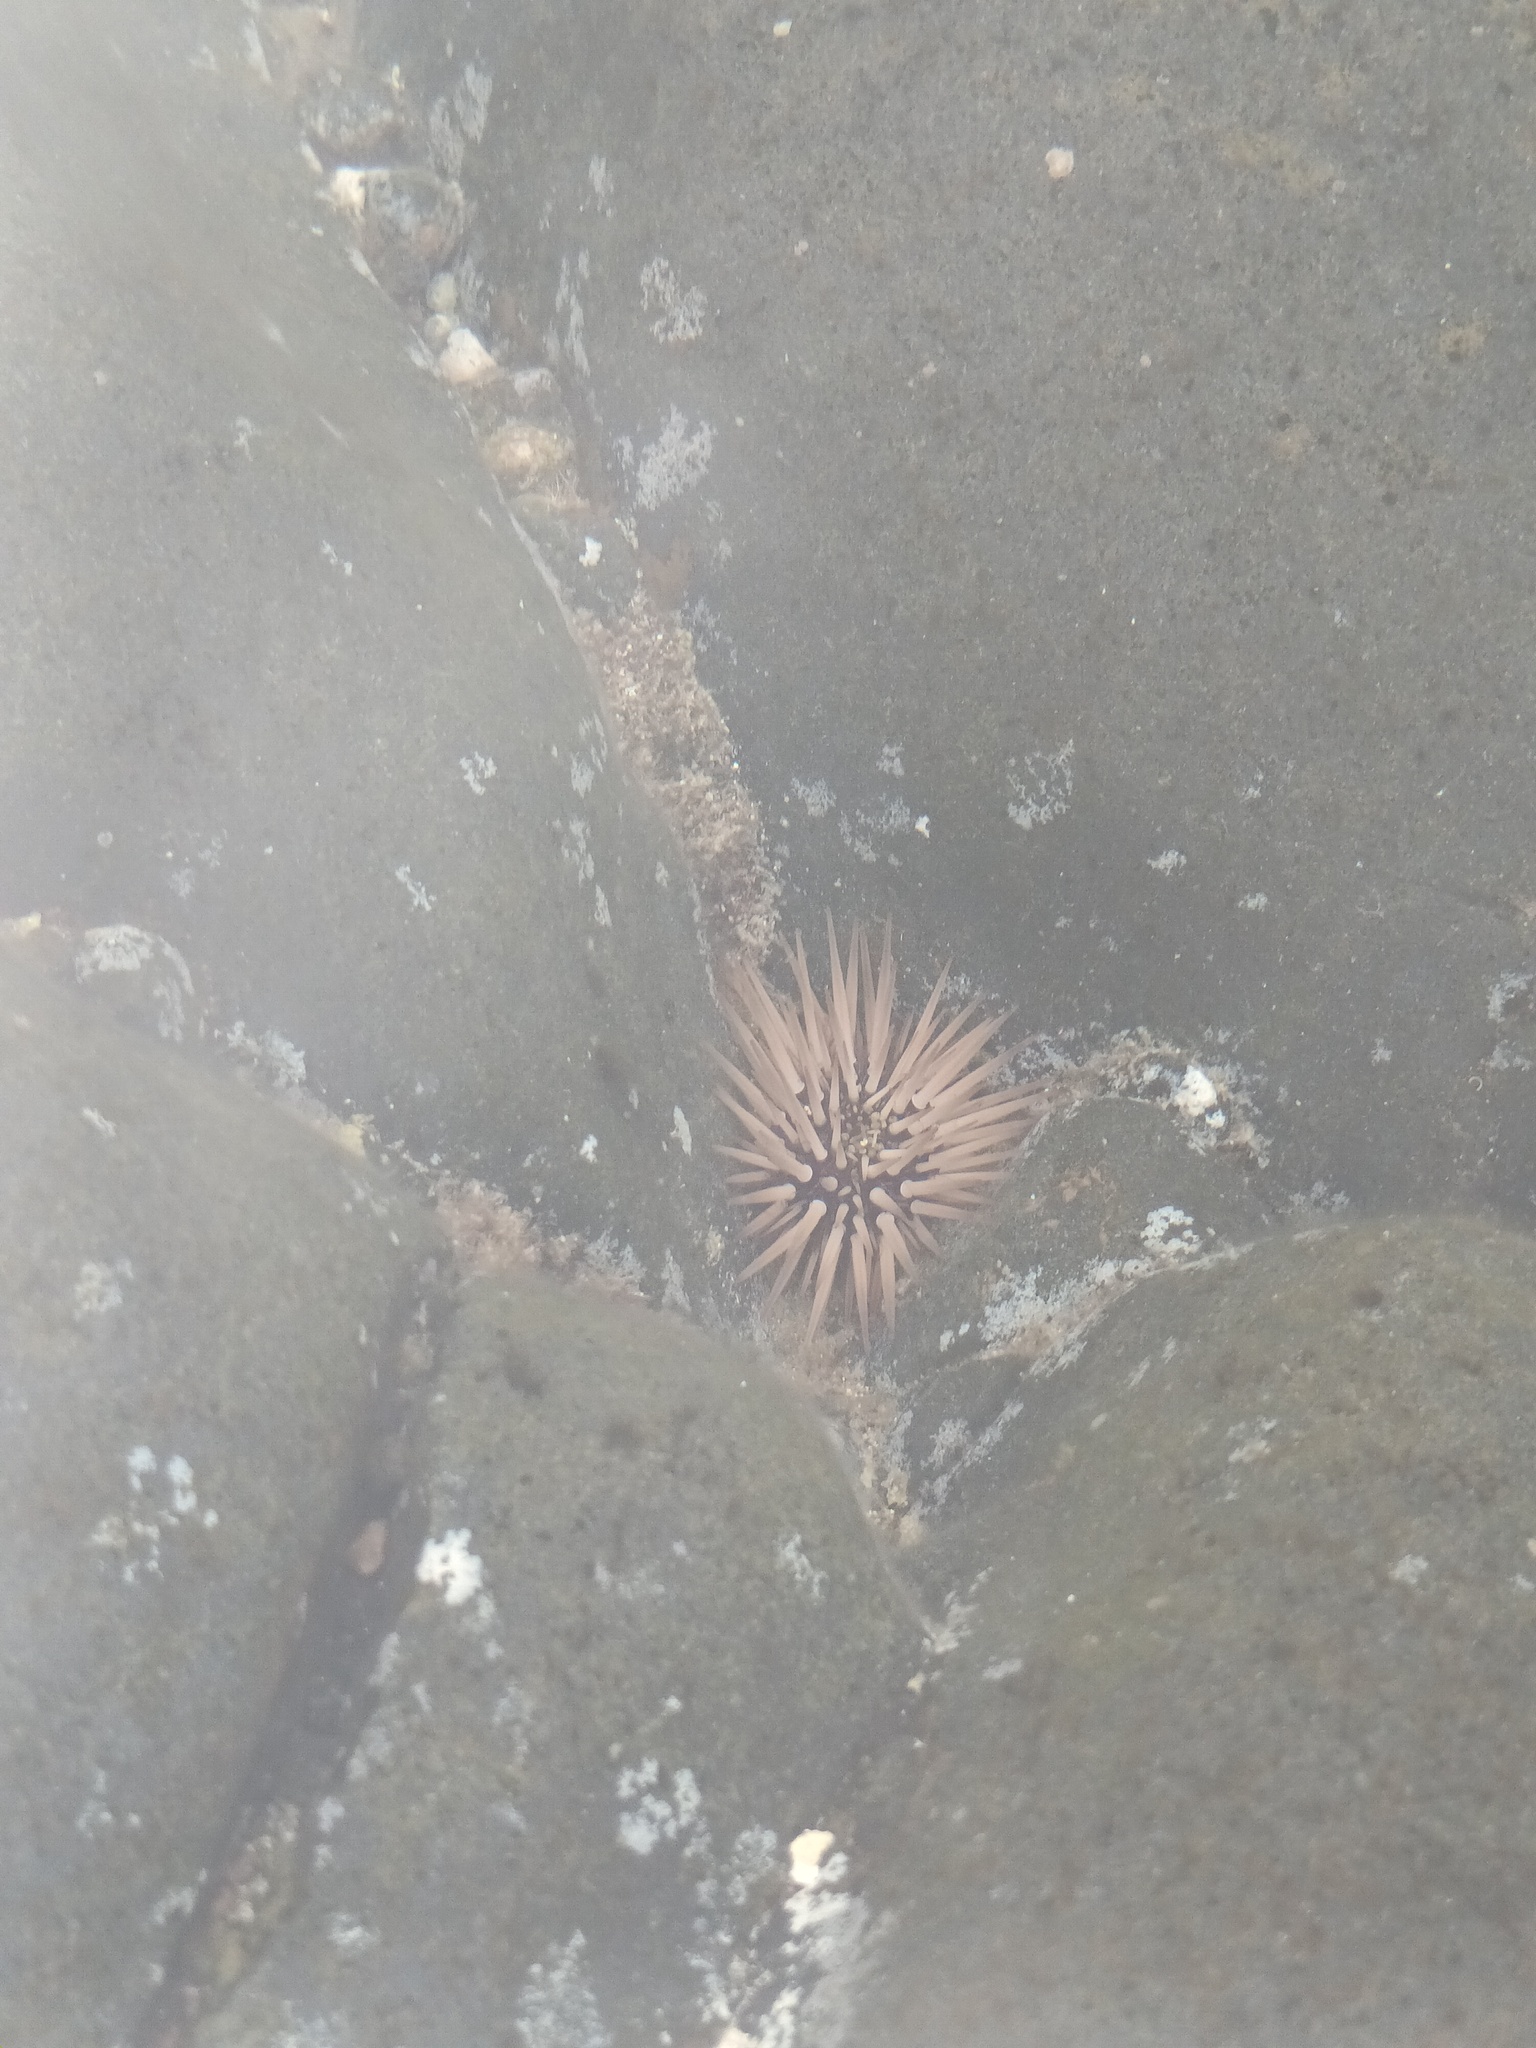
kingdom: Animalia
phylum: Echinodermata
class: Echinoidea
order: Camarodonta
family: Echinometridae
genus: Echinometra
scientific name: Echinometra mathaei
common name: Rock-boring urchin
